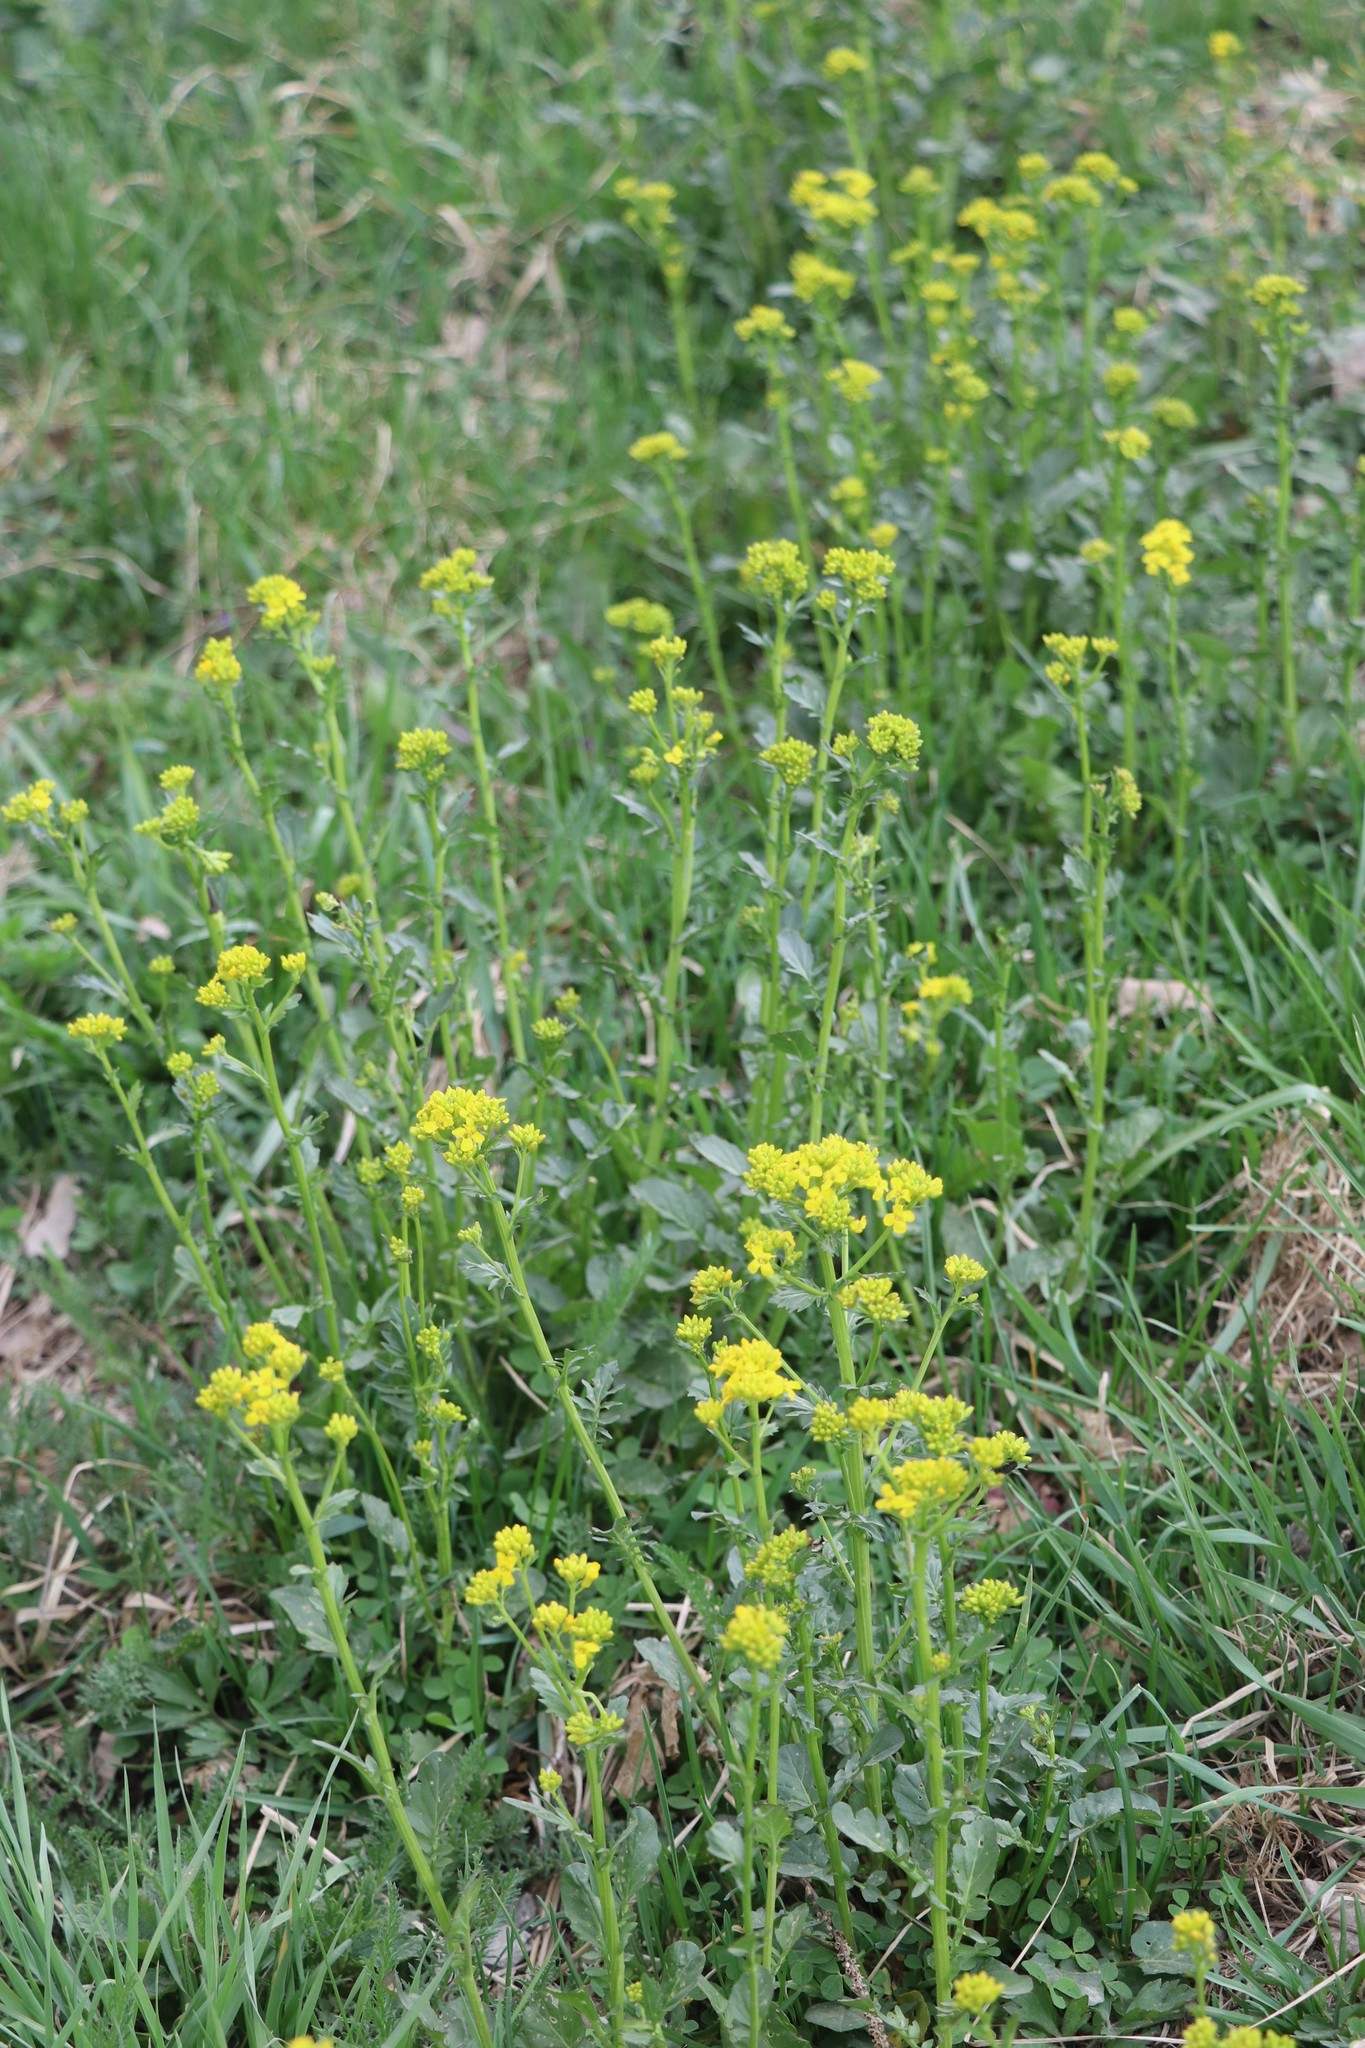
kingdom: Plantae
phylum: Tracheophyta
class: Magnoliopsida
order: Brassicales
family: Brassicaceae
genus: Barbarea
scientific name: Barbarea vulgaris
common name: Cressy-greens
